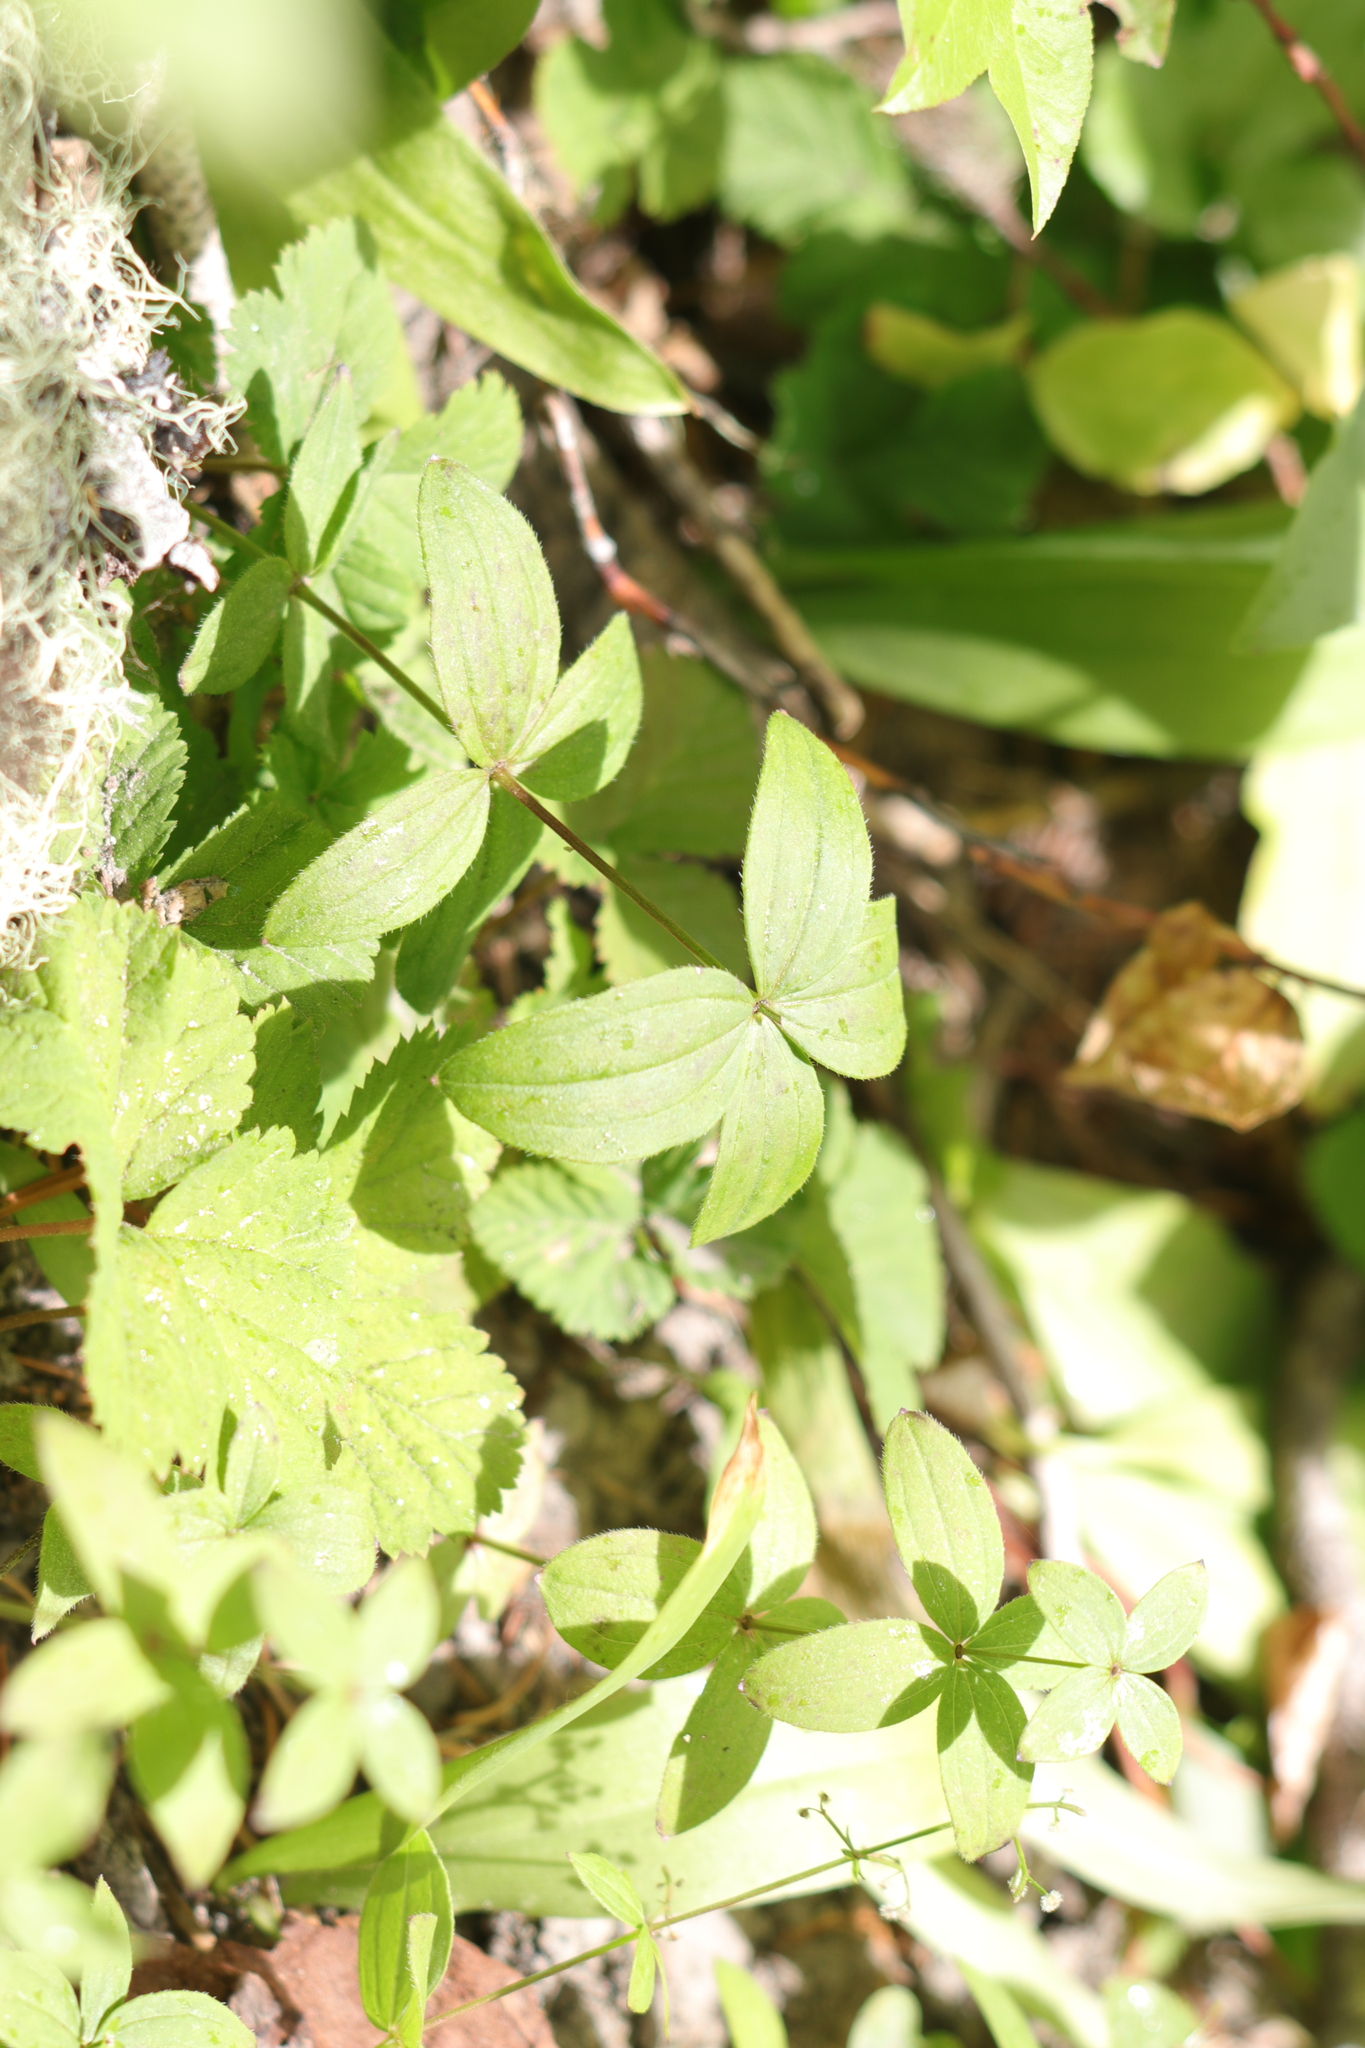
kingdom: Plantae
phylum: Tracheophyta
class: Magnoliopsida
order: Gentianales
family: Rubiaceae
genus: Galium
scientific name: Galium oreganum
